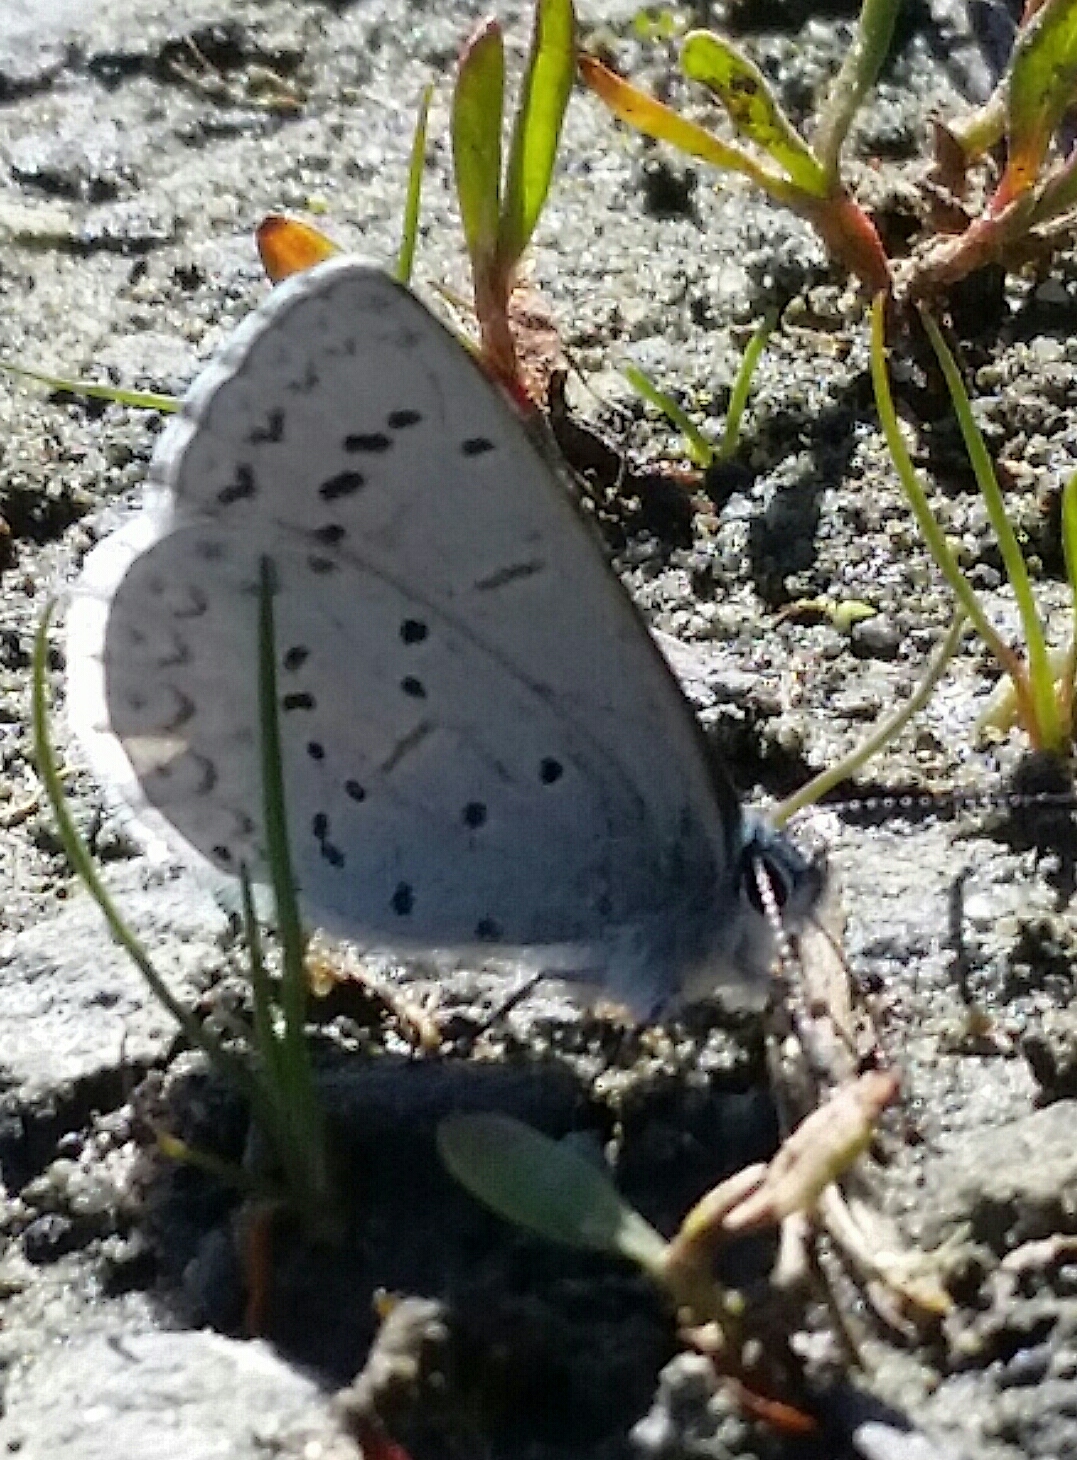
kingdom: Animalia
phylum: Arthropoda
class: Insecta
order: Lepidoptera
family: Lycaenidae
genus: Celastrina
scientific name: Celastrina ladon
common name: Spring azure
